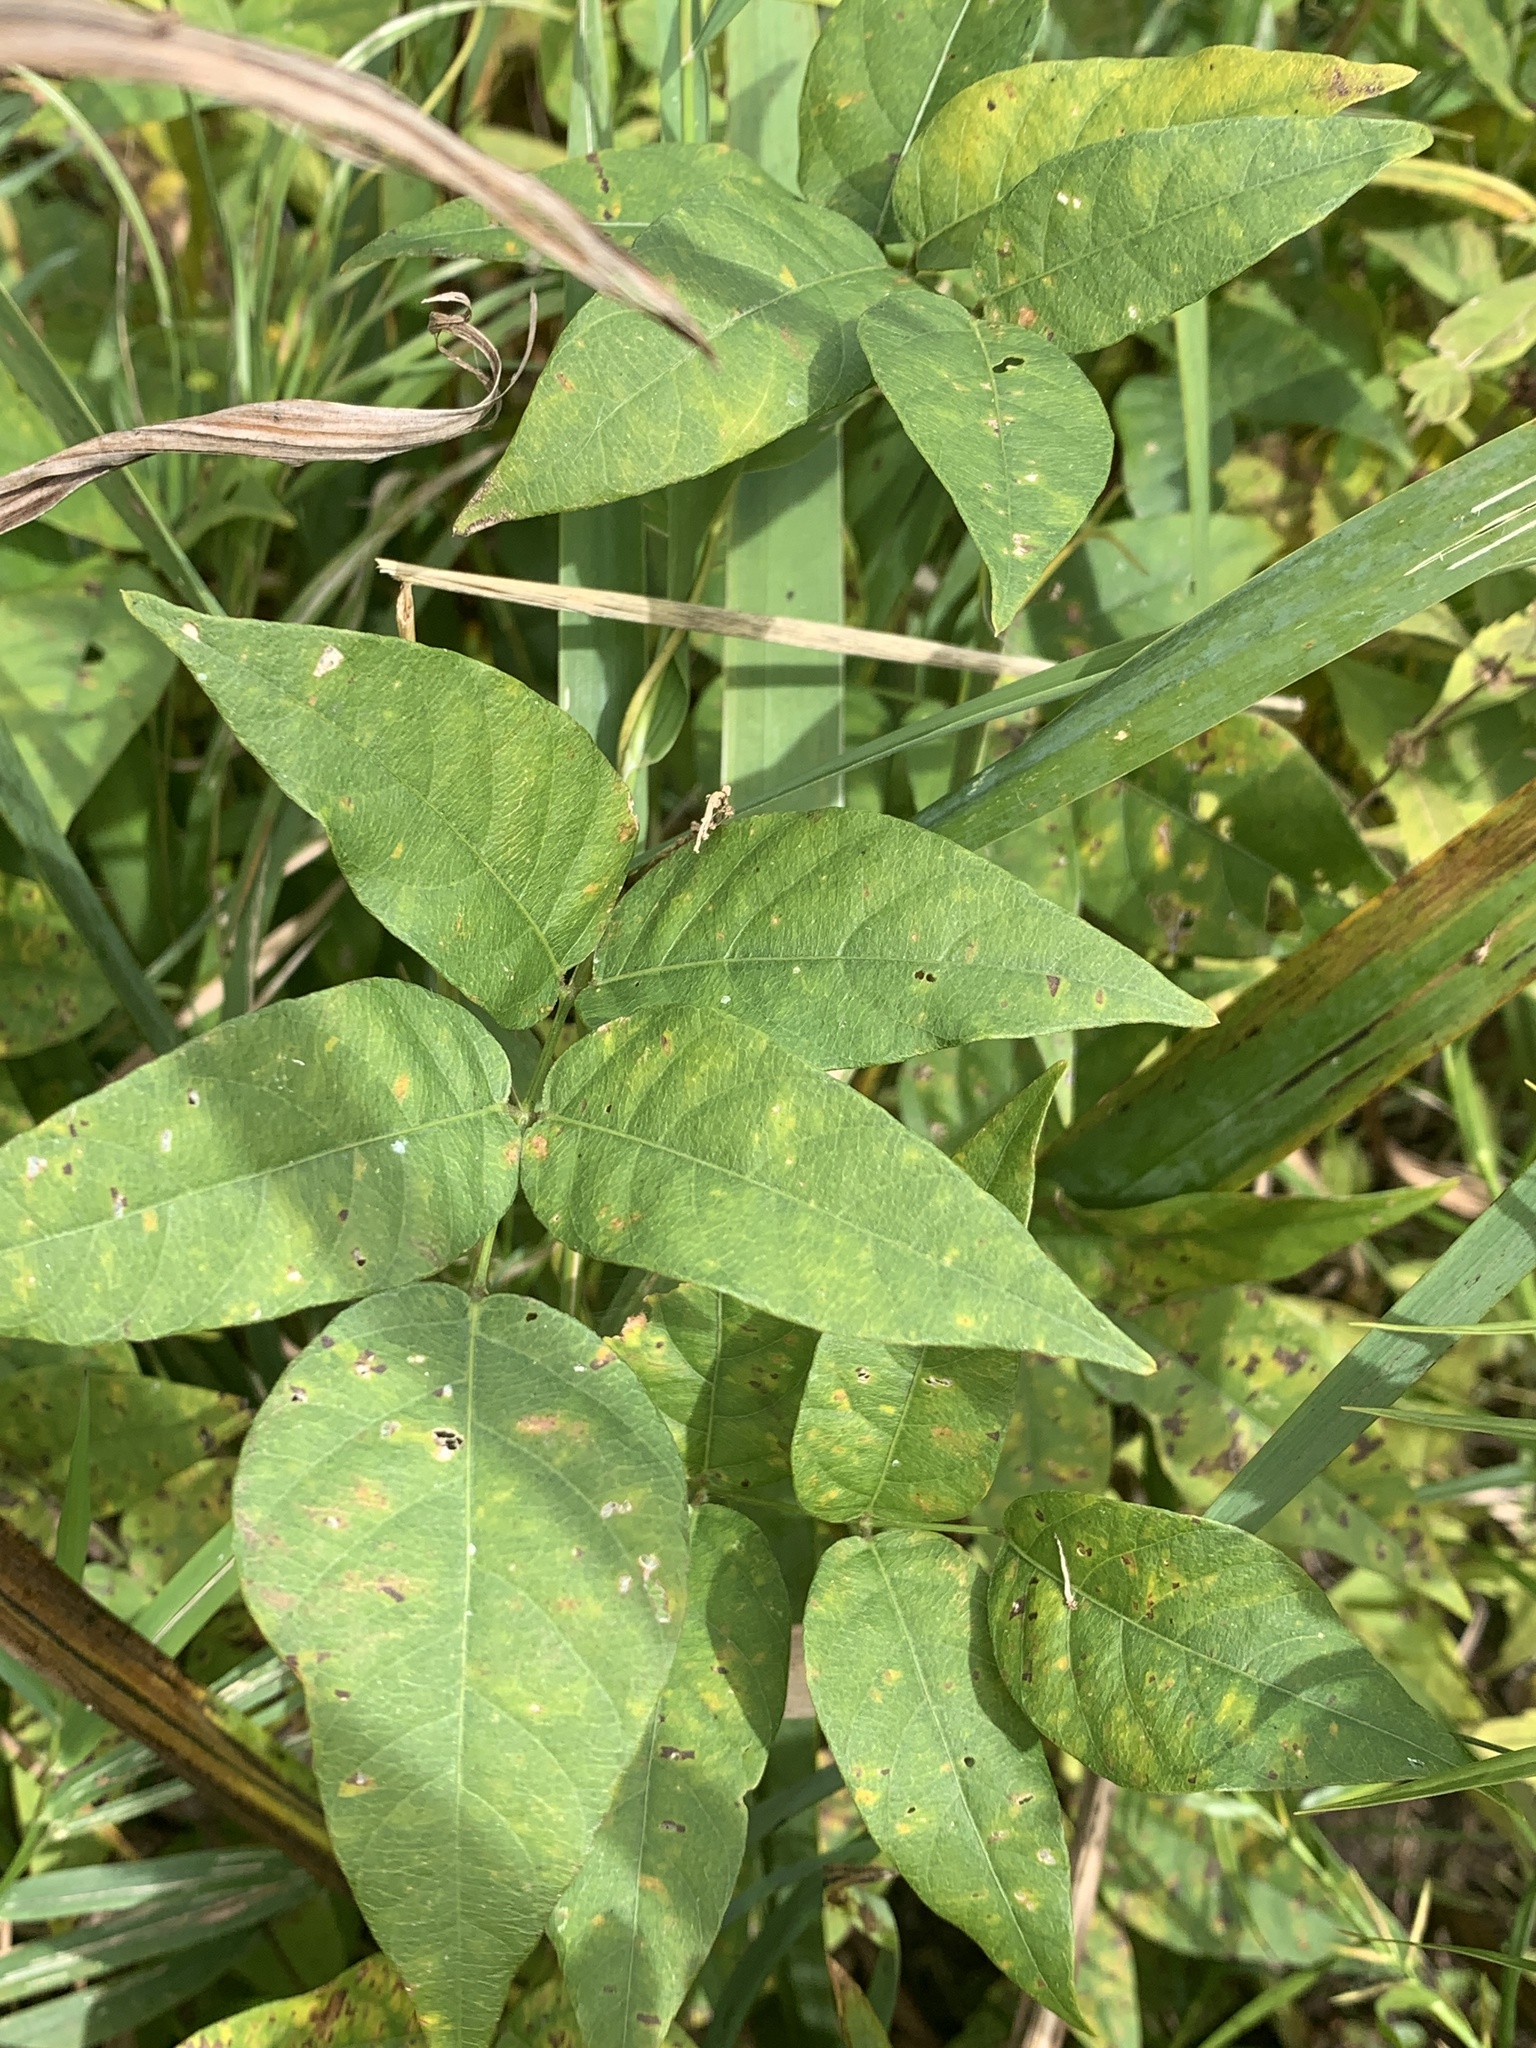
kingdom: Plantae
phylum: Tracheophyta
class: Magnoliopsida
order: Fabales
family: Fabaceae
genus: Apios
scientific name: Apios americana
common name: American potato-bean
